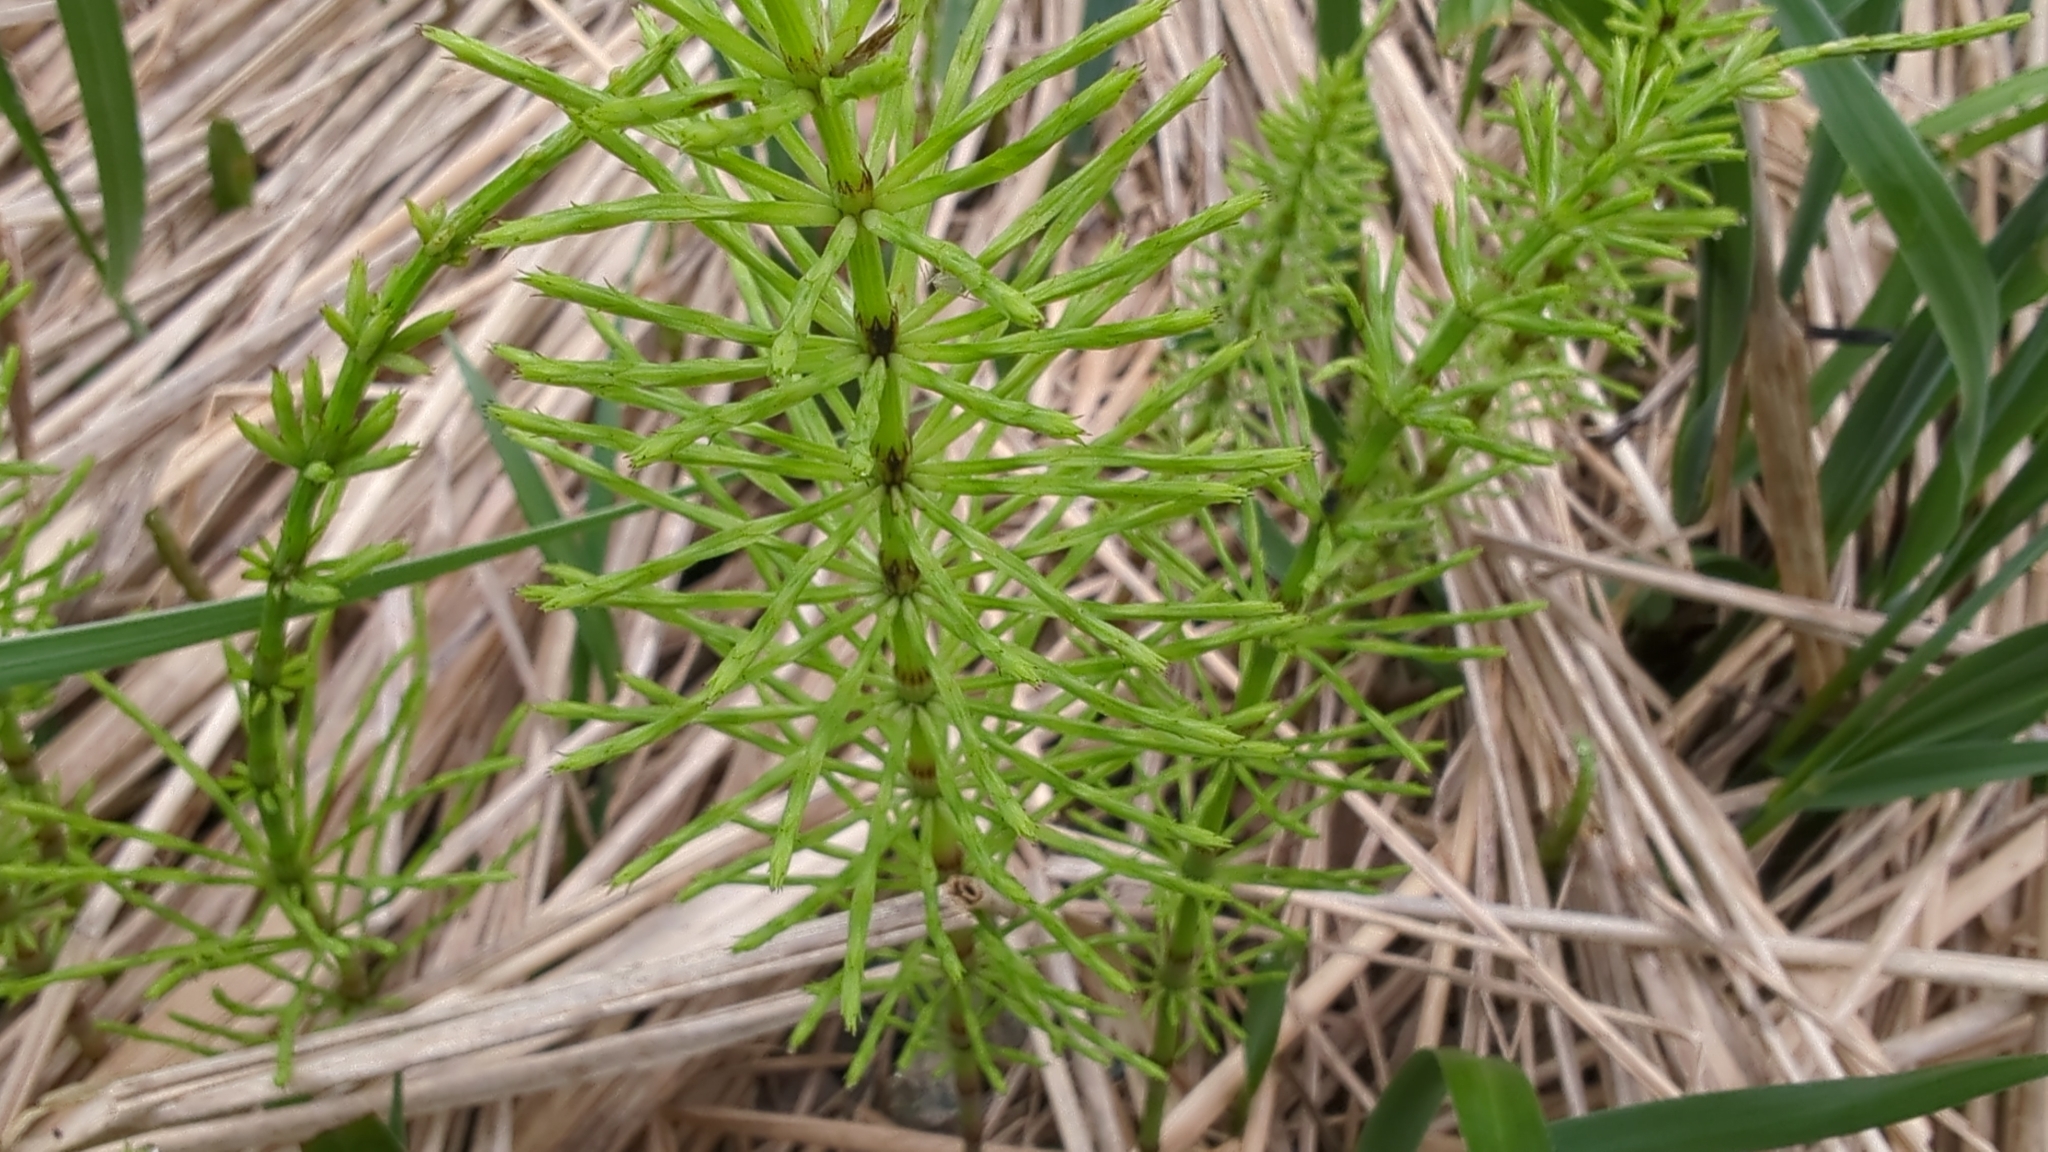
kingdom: Plantae
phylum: Tracheophyta
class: Polypodiopsida
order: Equisetales
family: Equisetaceae
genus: Equisetum
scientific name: Equisetum arvense
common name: Field horsetail
